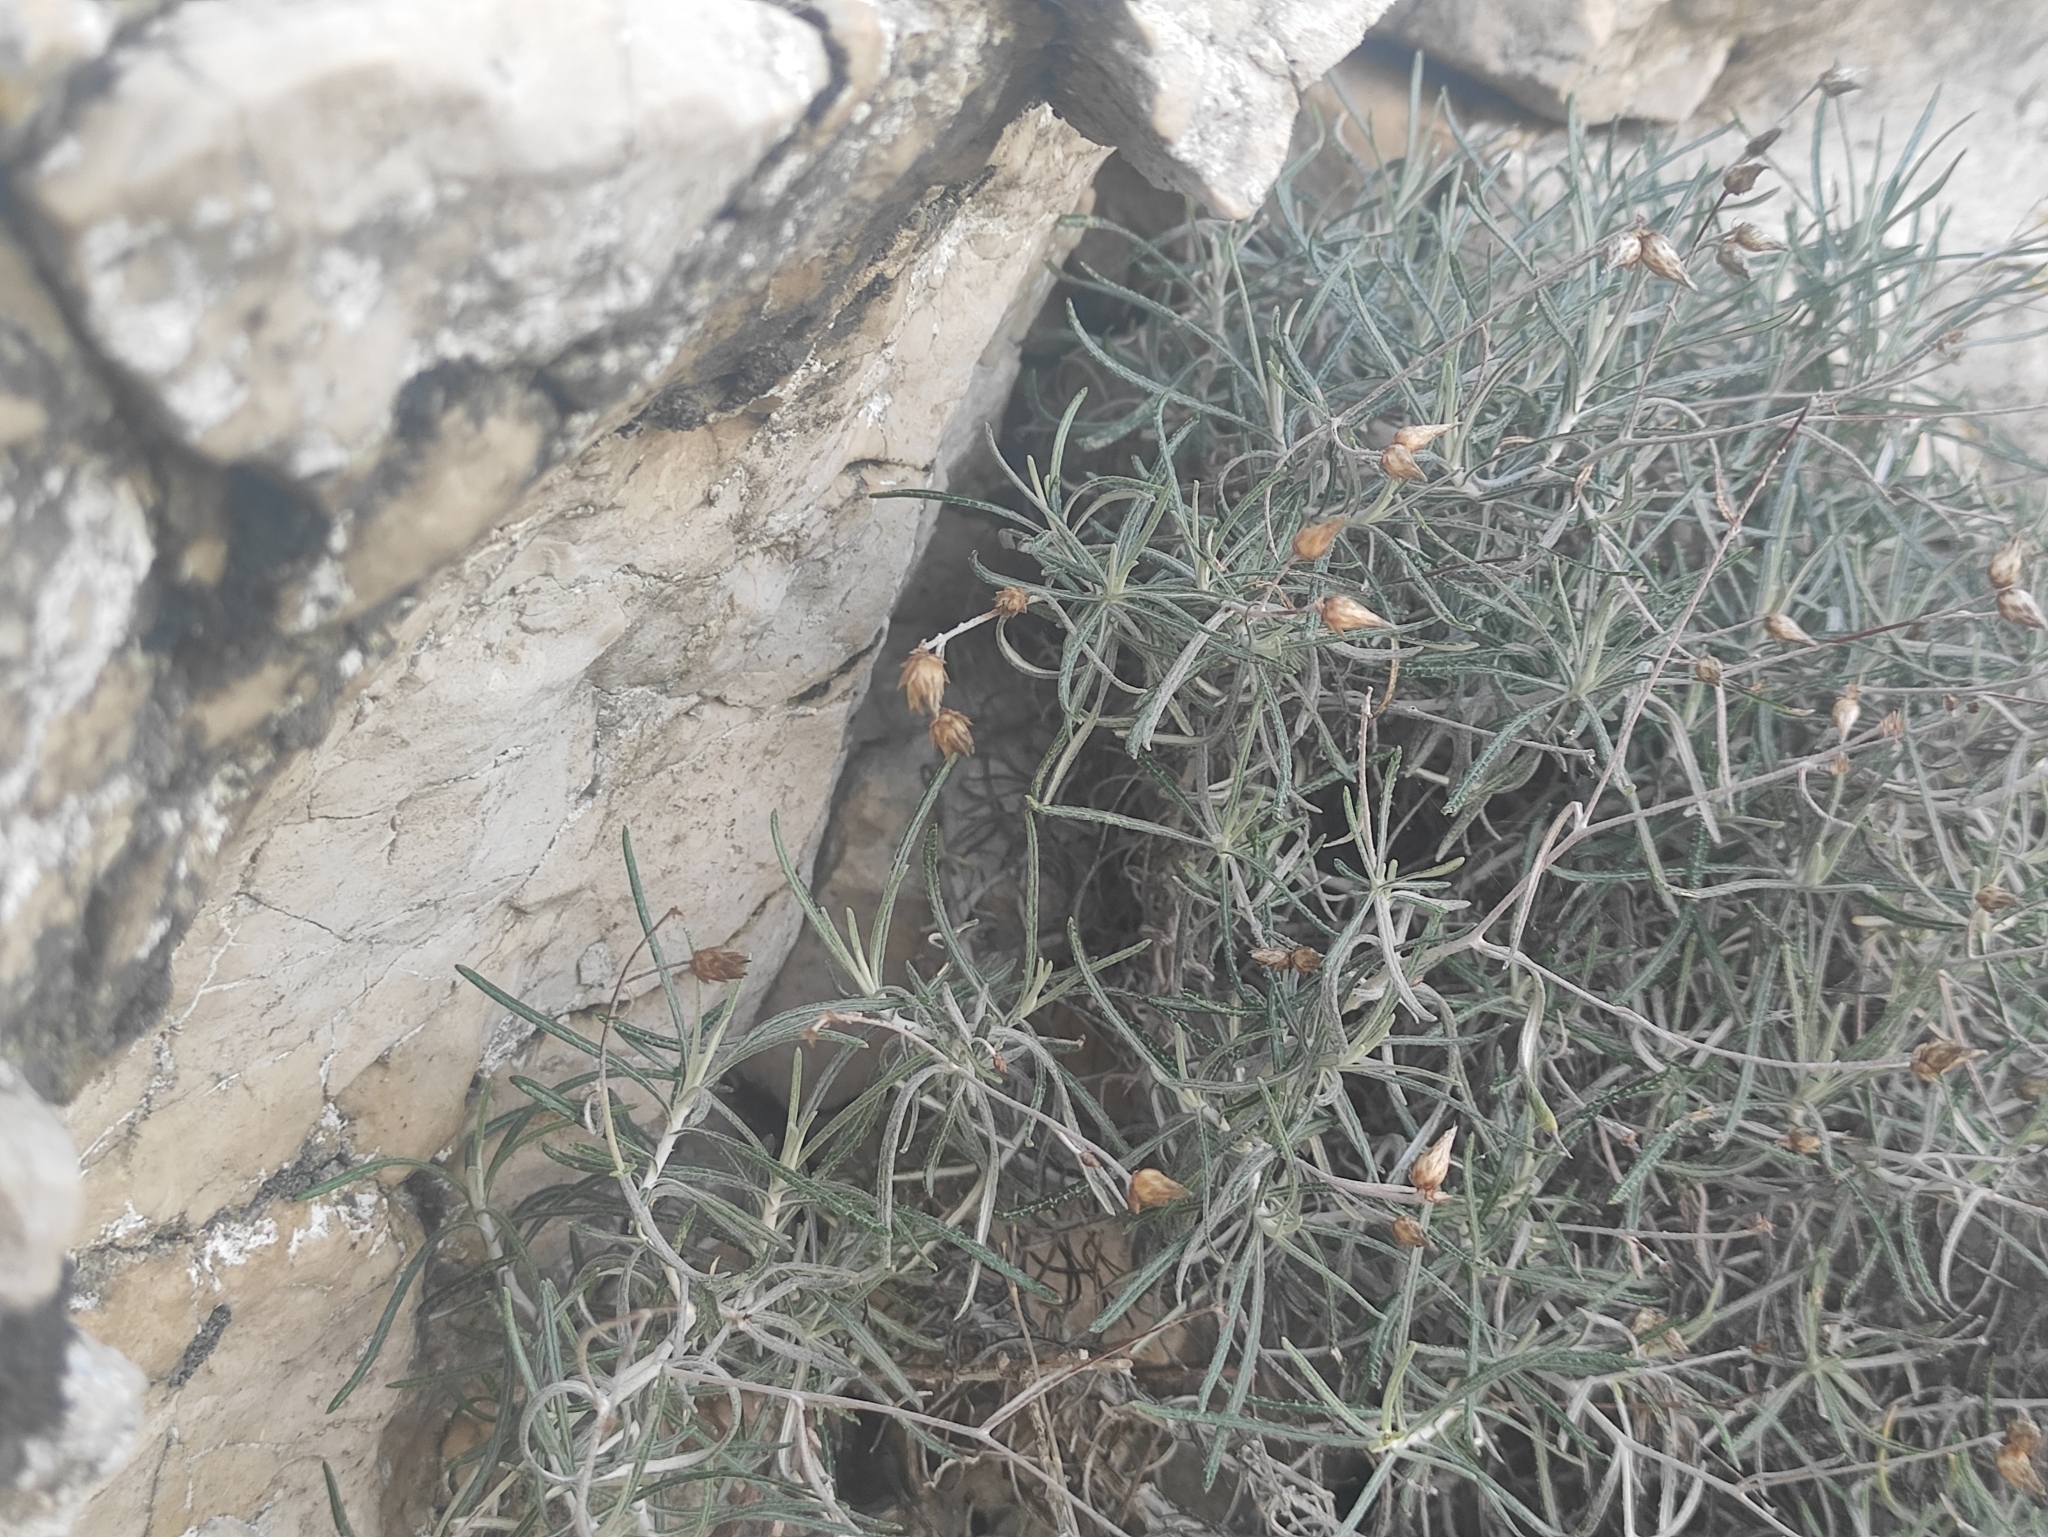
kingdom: Plantae
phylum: Tracheophyta
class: Magnoliopsida
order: Asterales
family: Asteraceae
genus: Phagnalon
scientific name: Phagnalon sordidum
